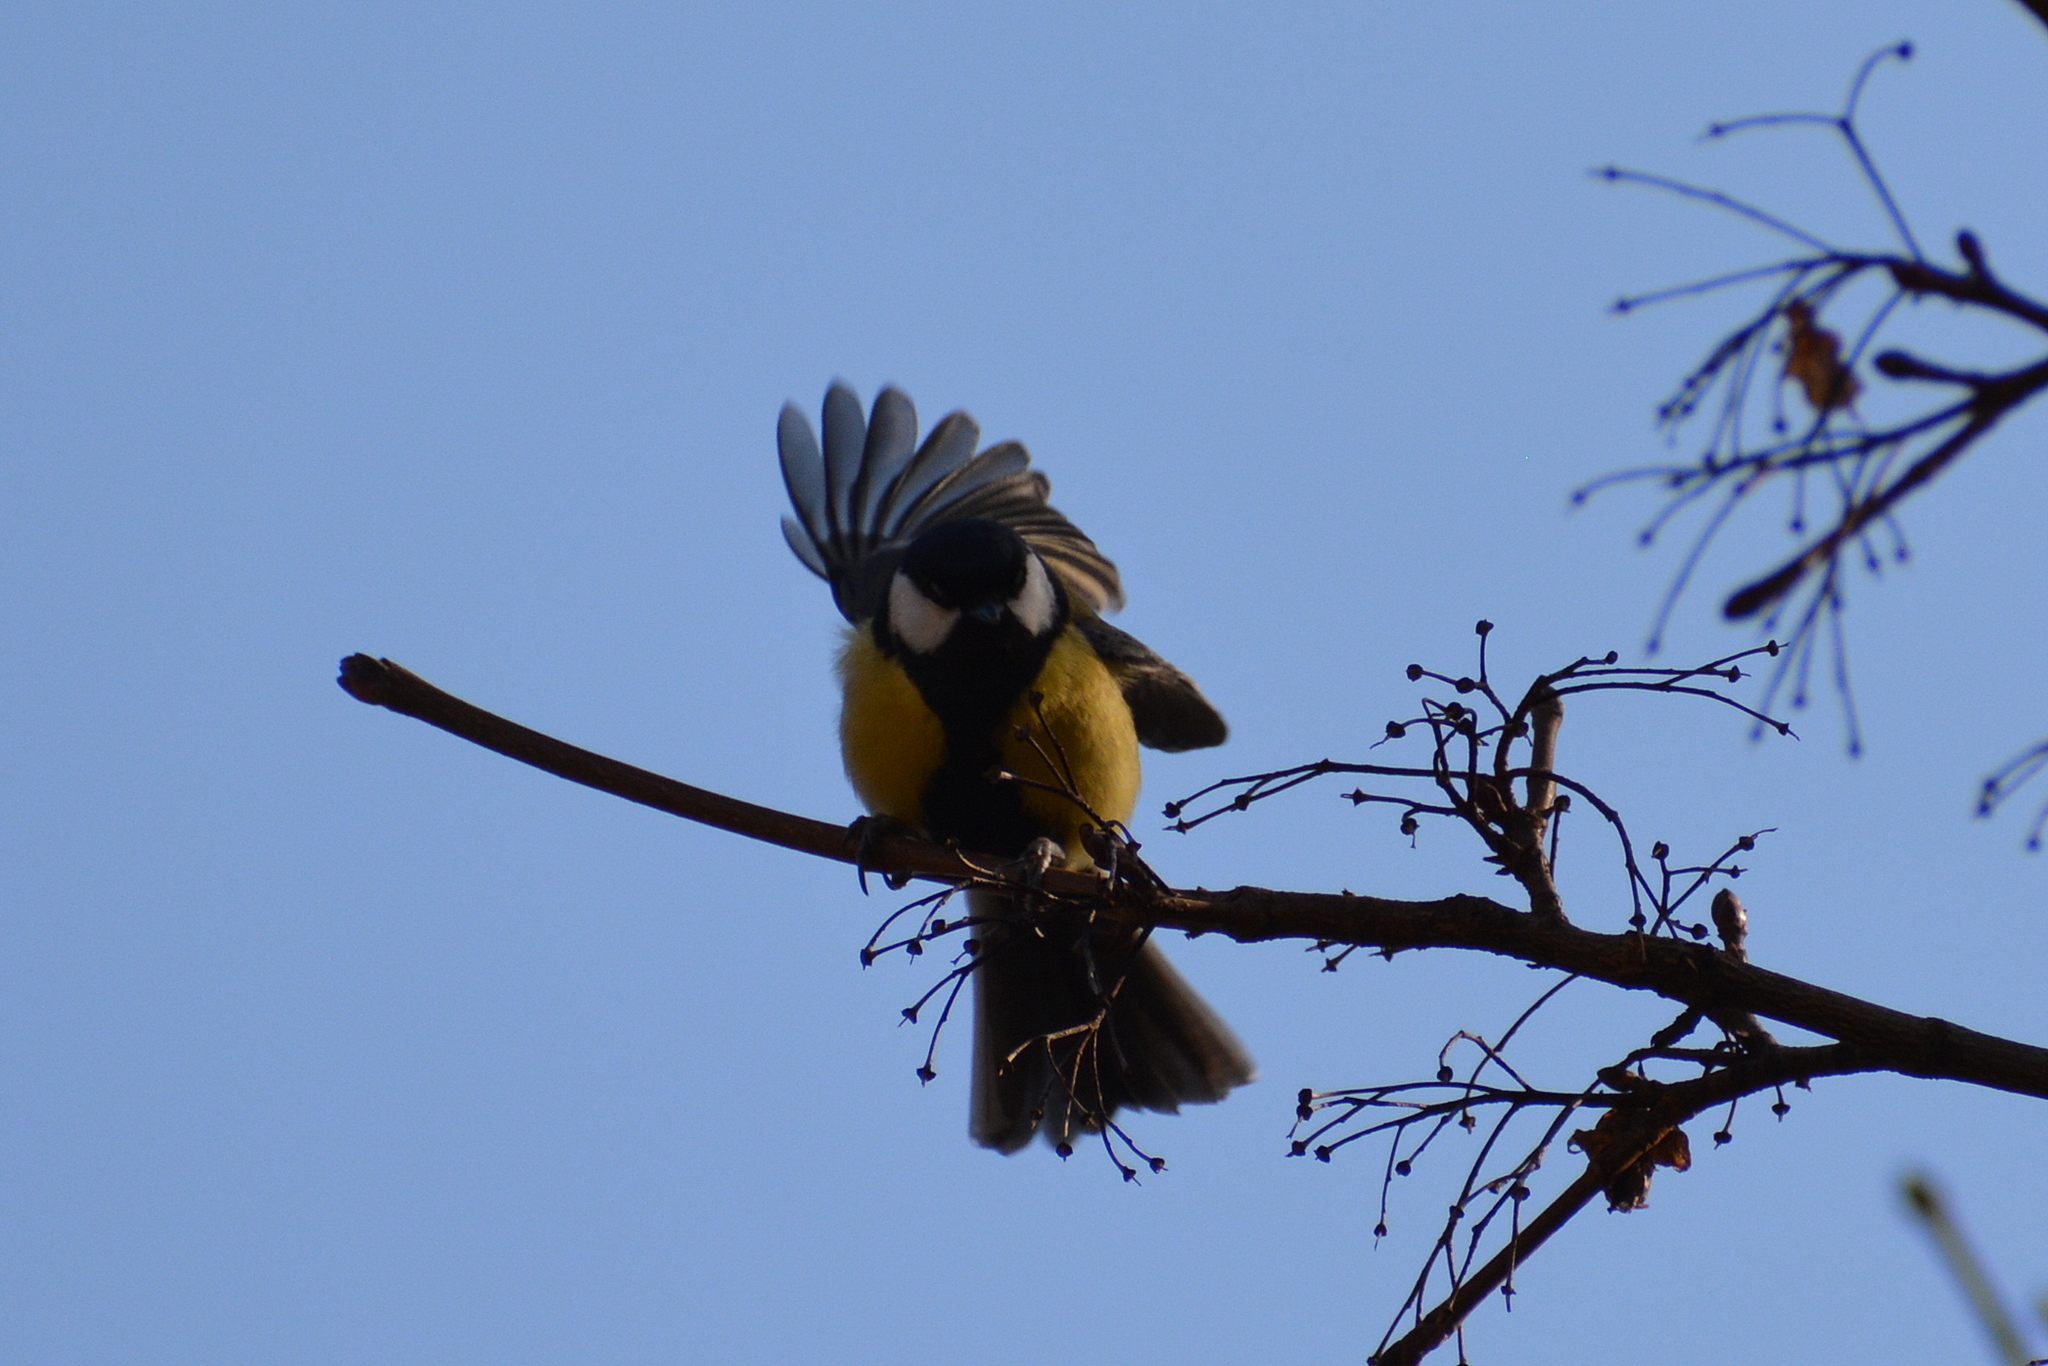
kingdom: Animalia
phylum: Chordata
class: Aves
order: Passeriformes
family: Paridae
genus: Parus
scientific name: Parus major
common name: Great tit
